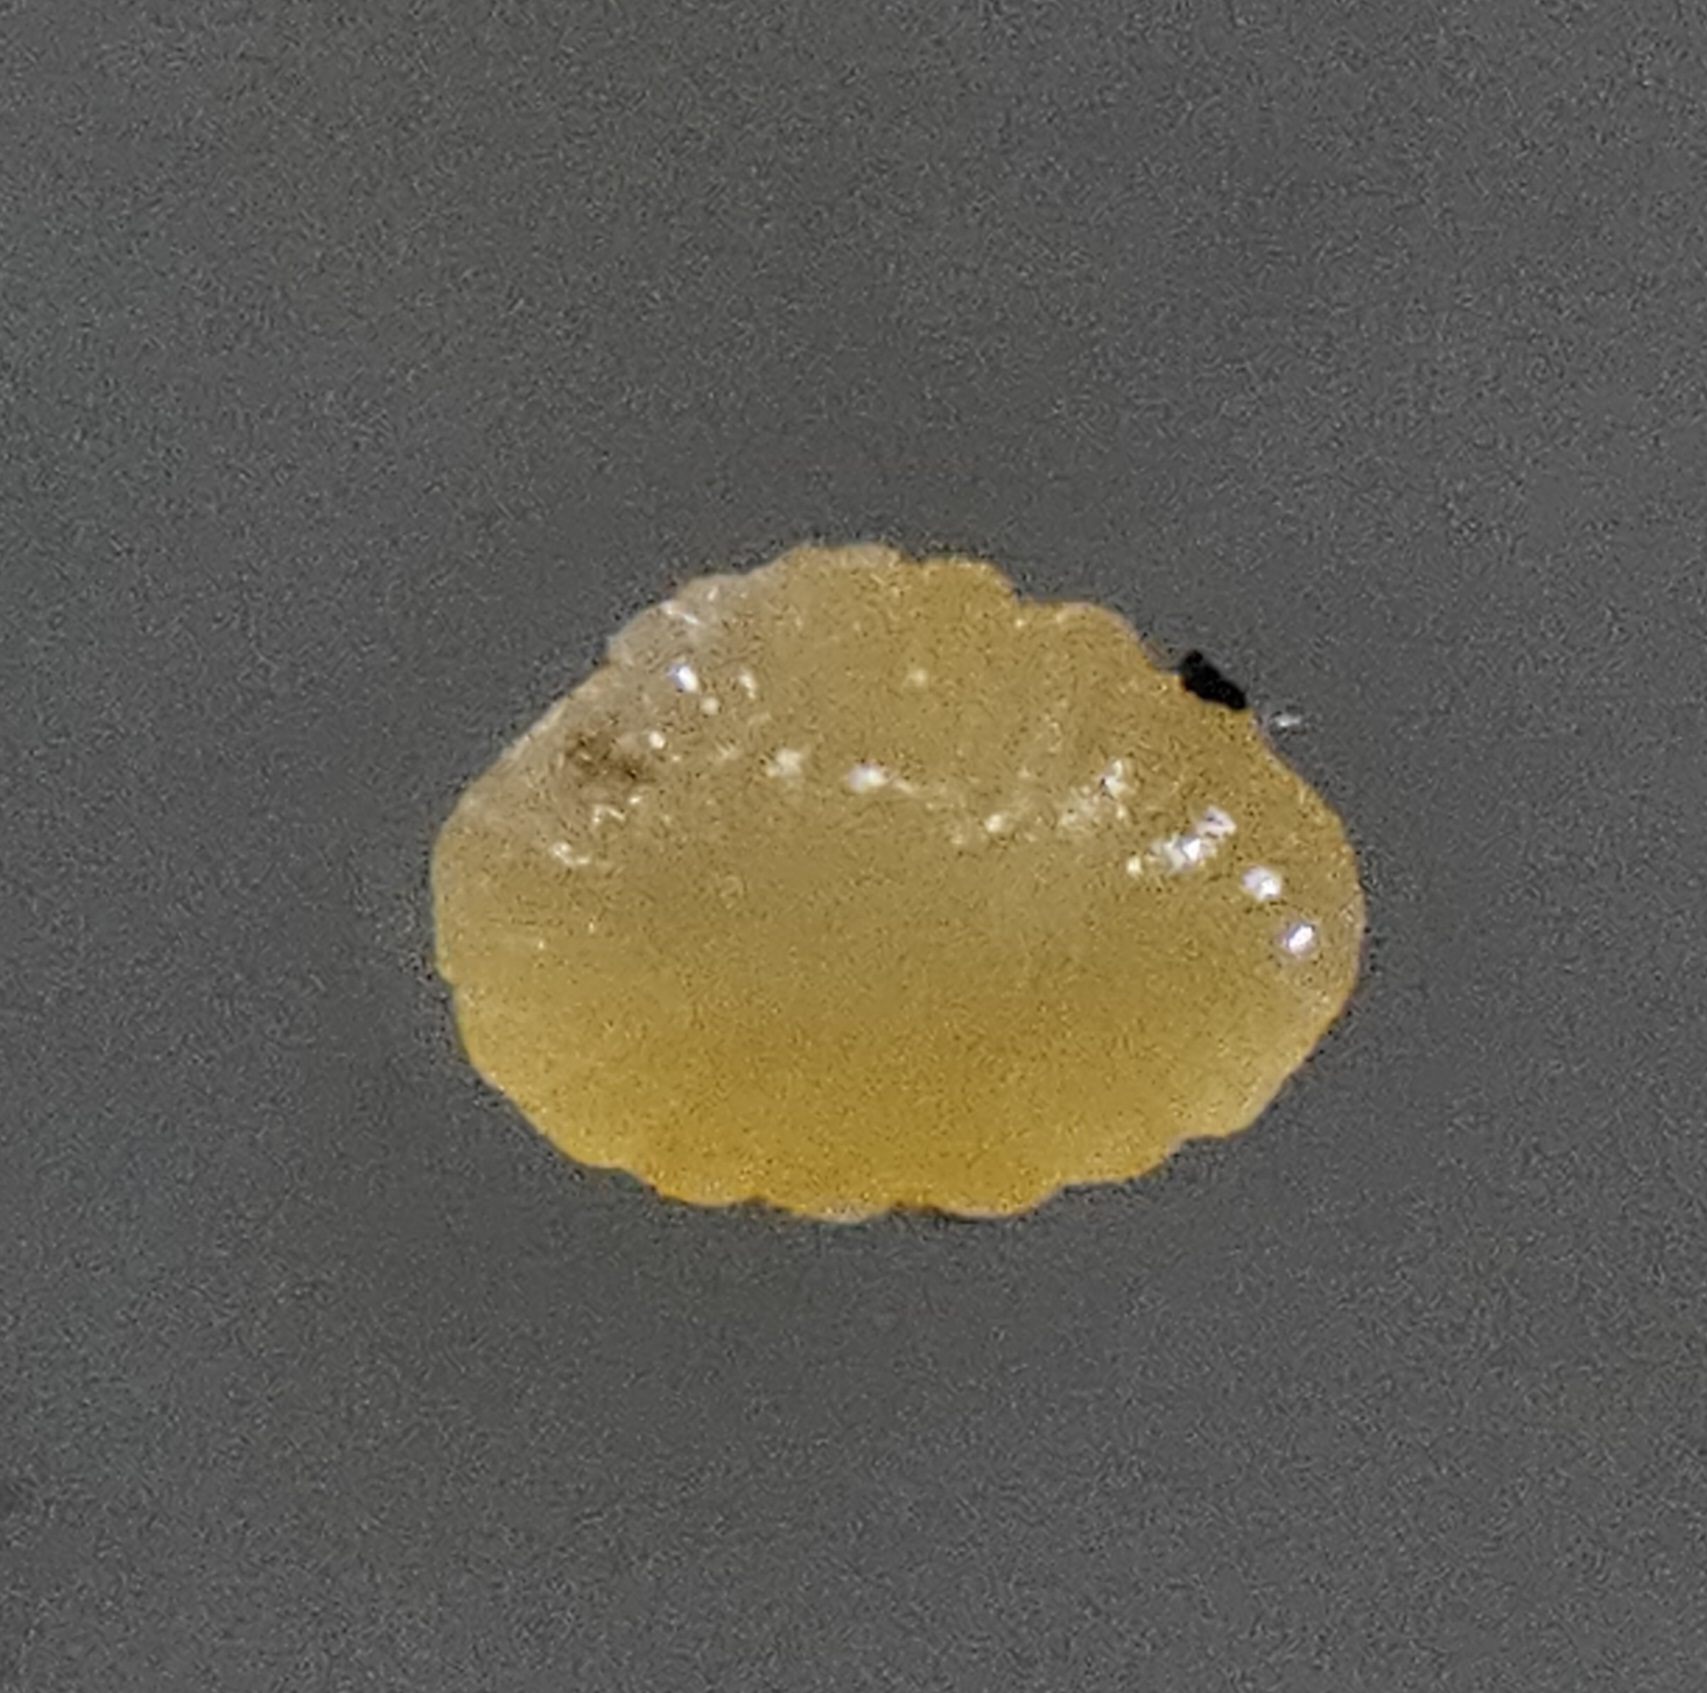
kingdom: Animalia
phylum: Arthropoda
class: Insecta
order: Diptera
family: Cecidomyiidae
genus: Asteromyia
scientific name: Asteromyia euthamiae
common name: Euthamia leaf gall midge
